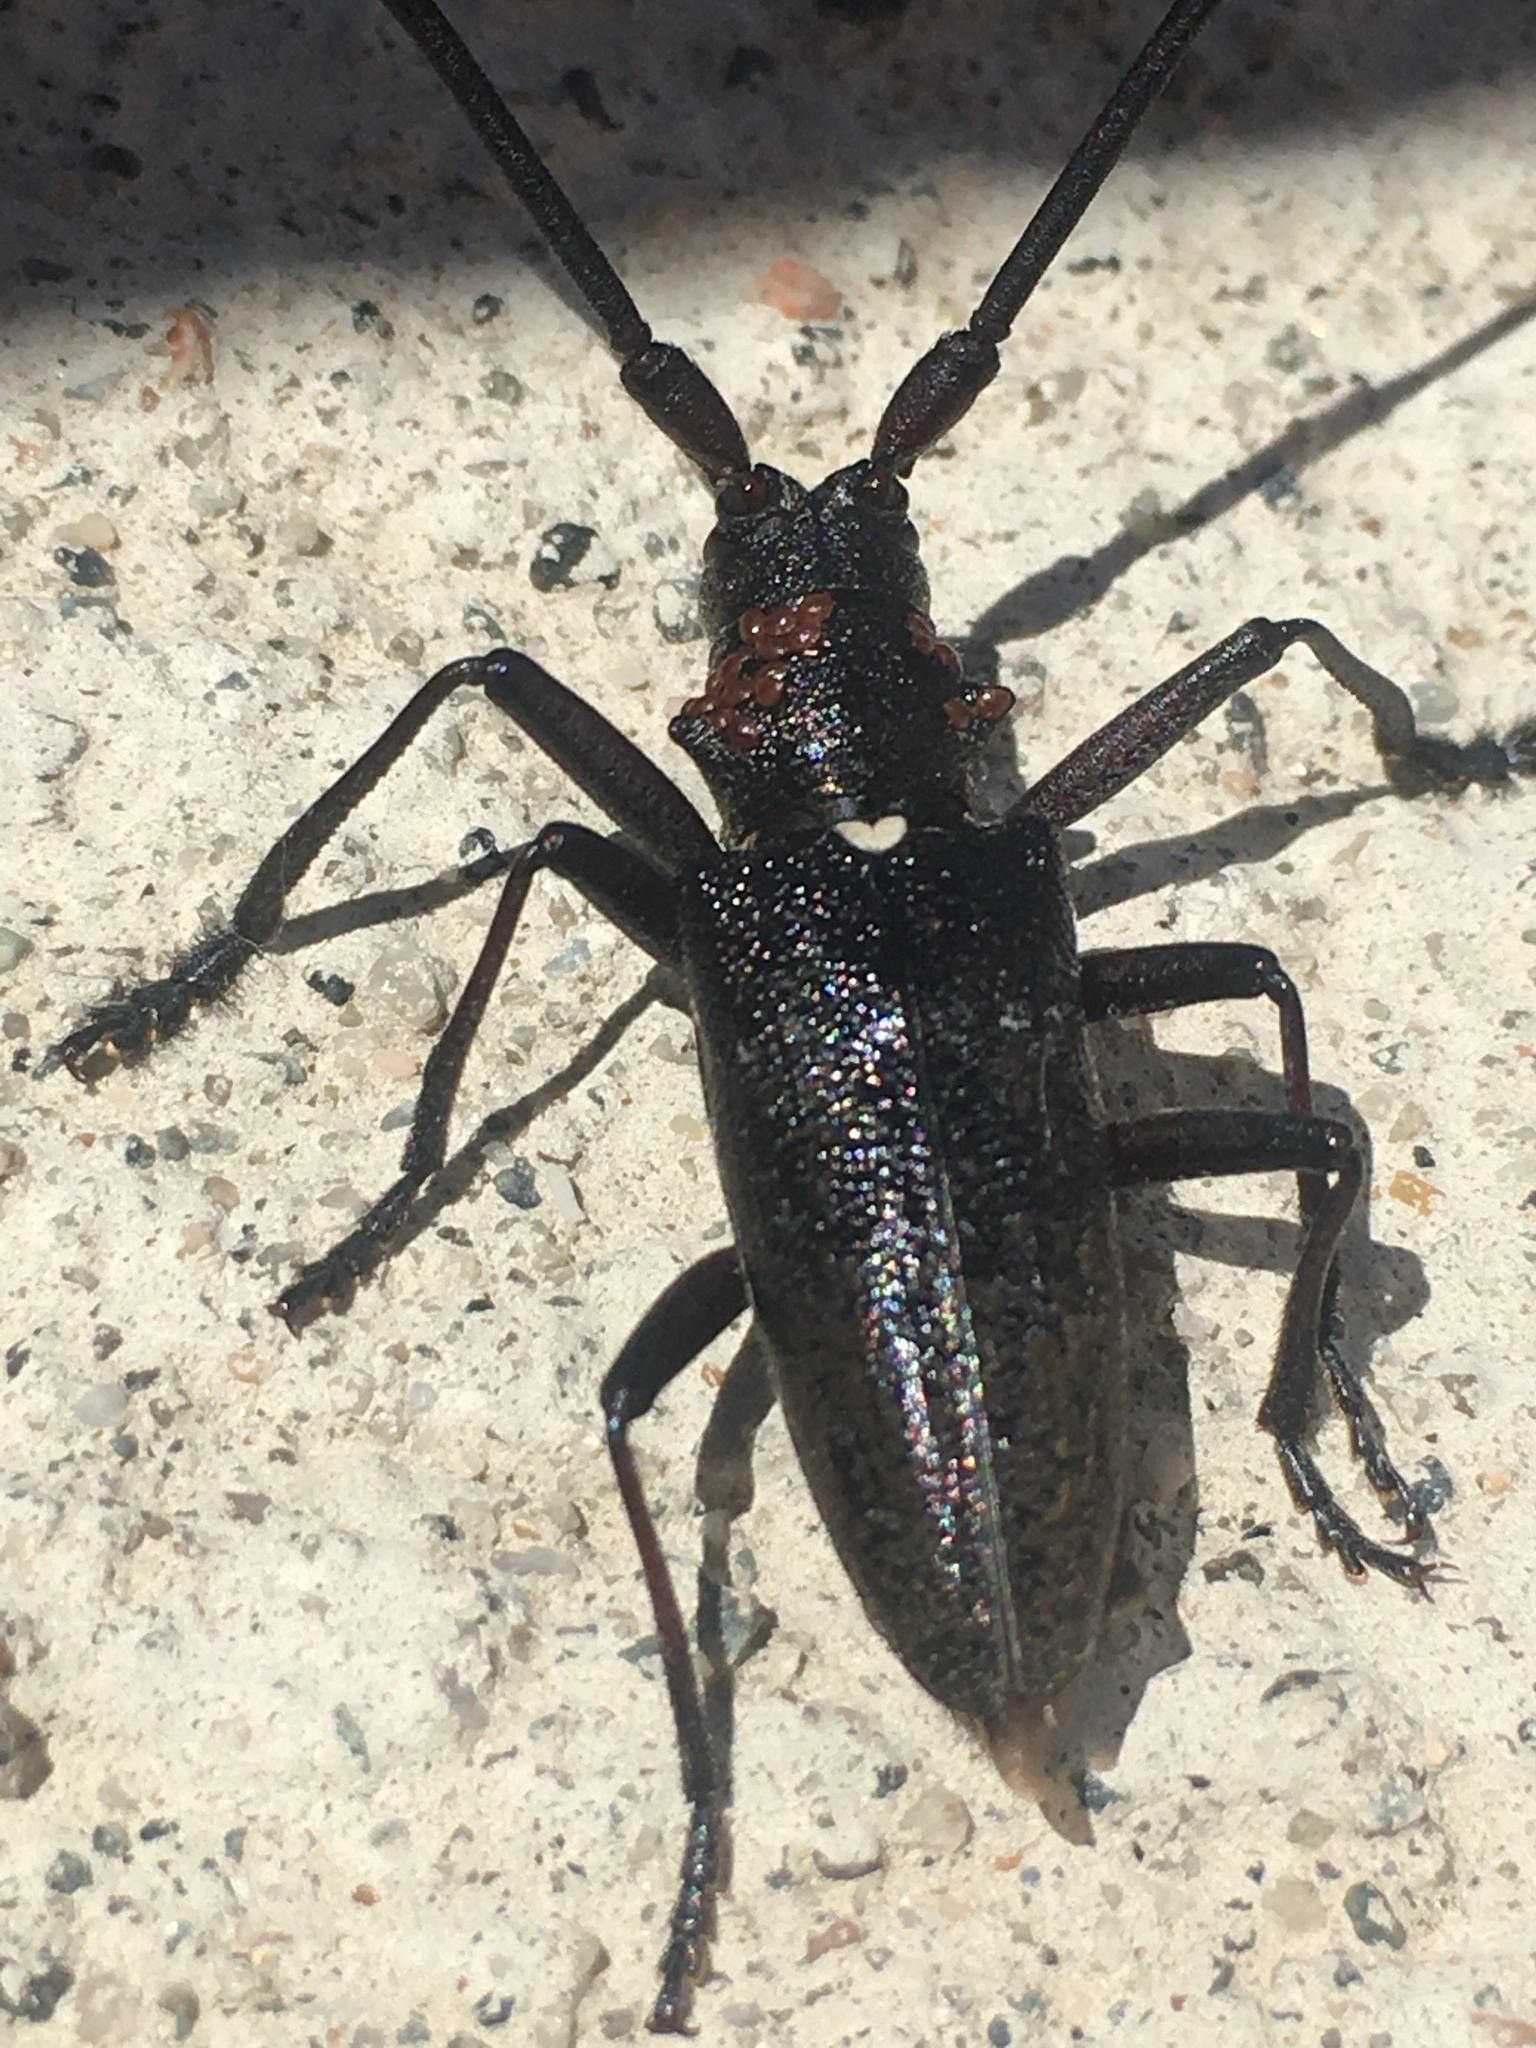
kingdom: Animalia
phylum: Arthropoda
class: Insecta
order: Coleoptera
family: Cerambycidae
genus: Monochamus
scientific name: Monochamus scutellatus
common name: White-spotted sawyer beetle
